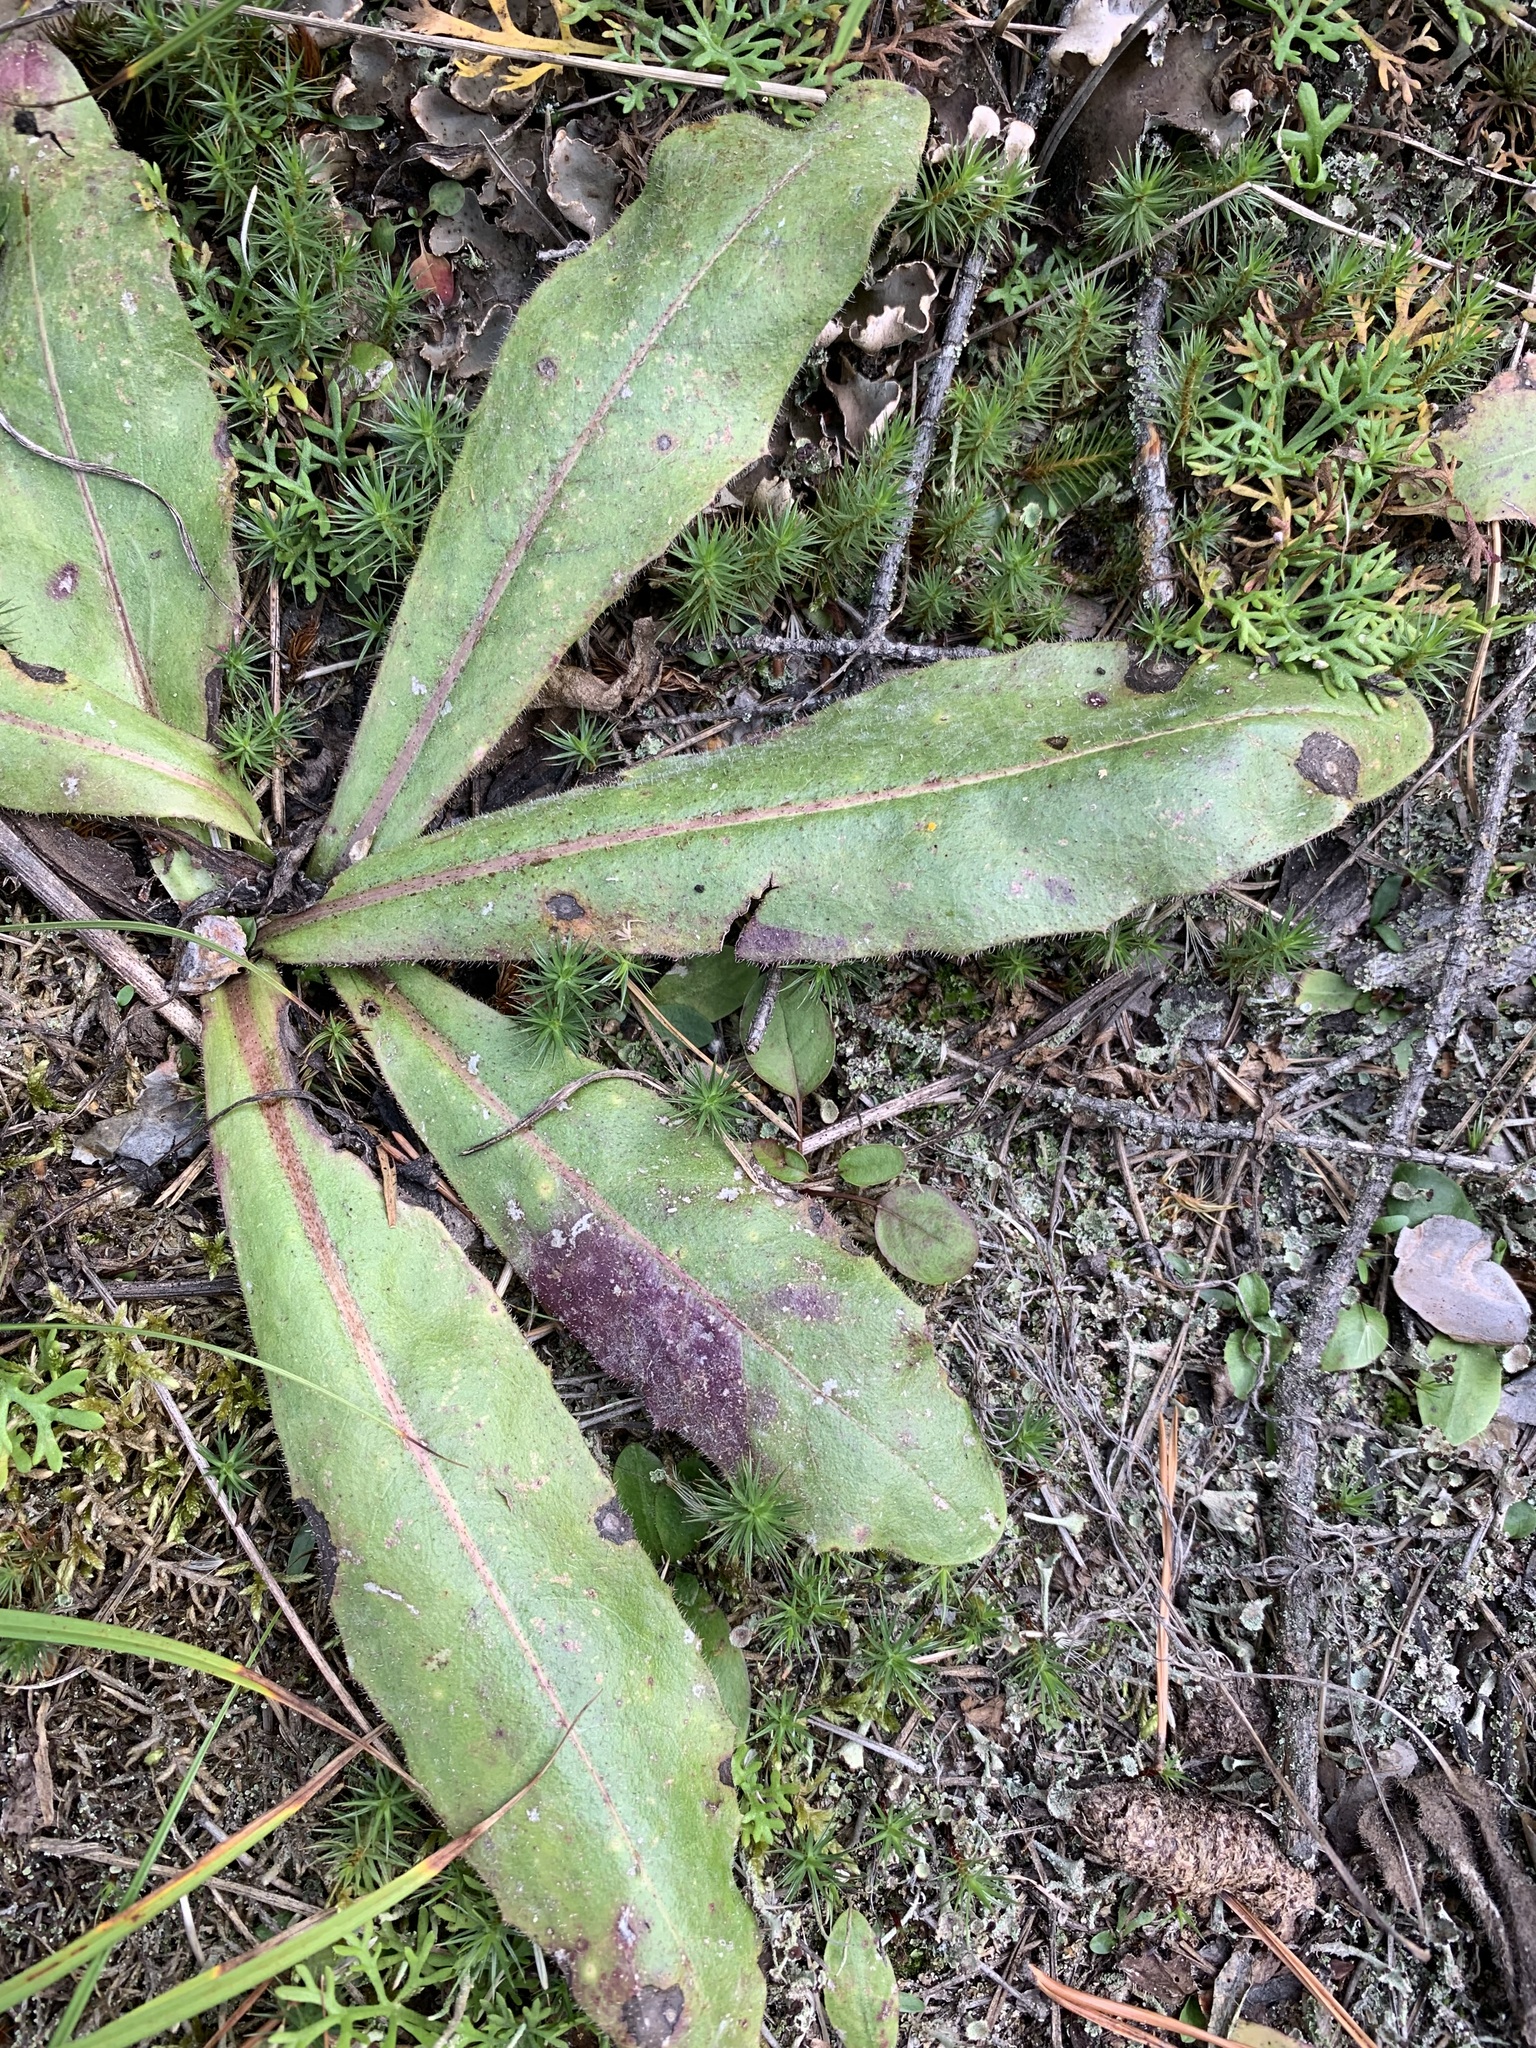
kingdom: Plantae
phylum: Tracheophyta
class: Magnoliopsida
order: Asterales
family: Asteraceae
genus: Trommsdorffia
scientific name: Trommsdorffia maculata
